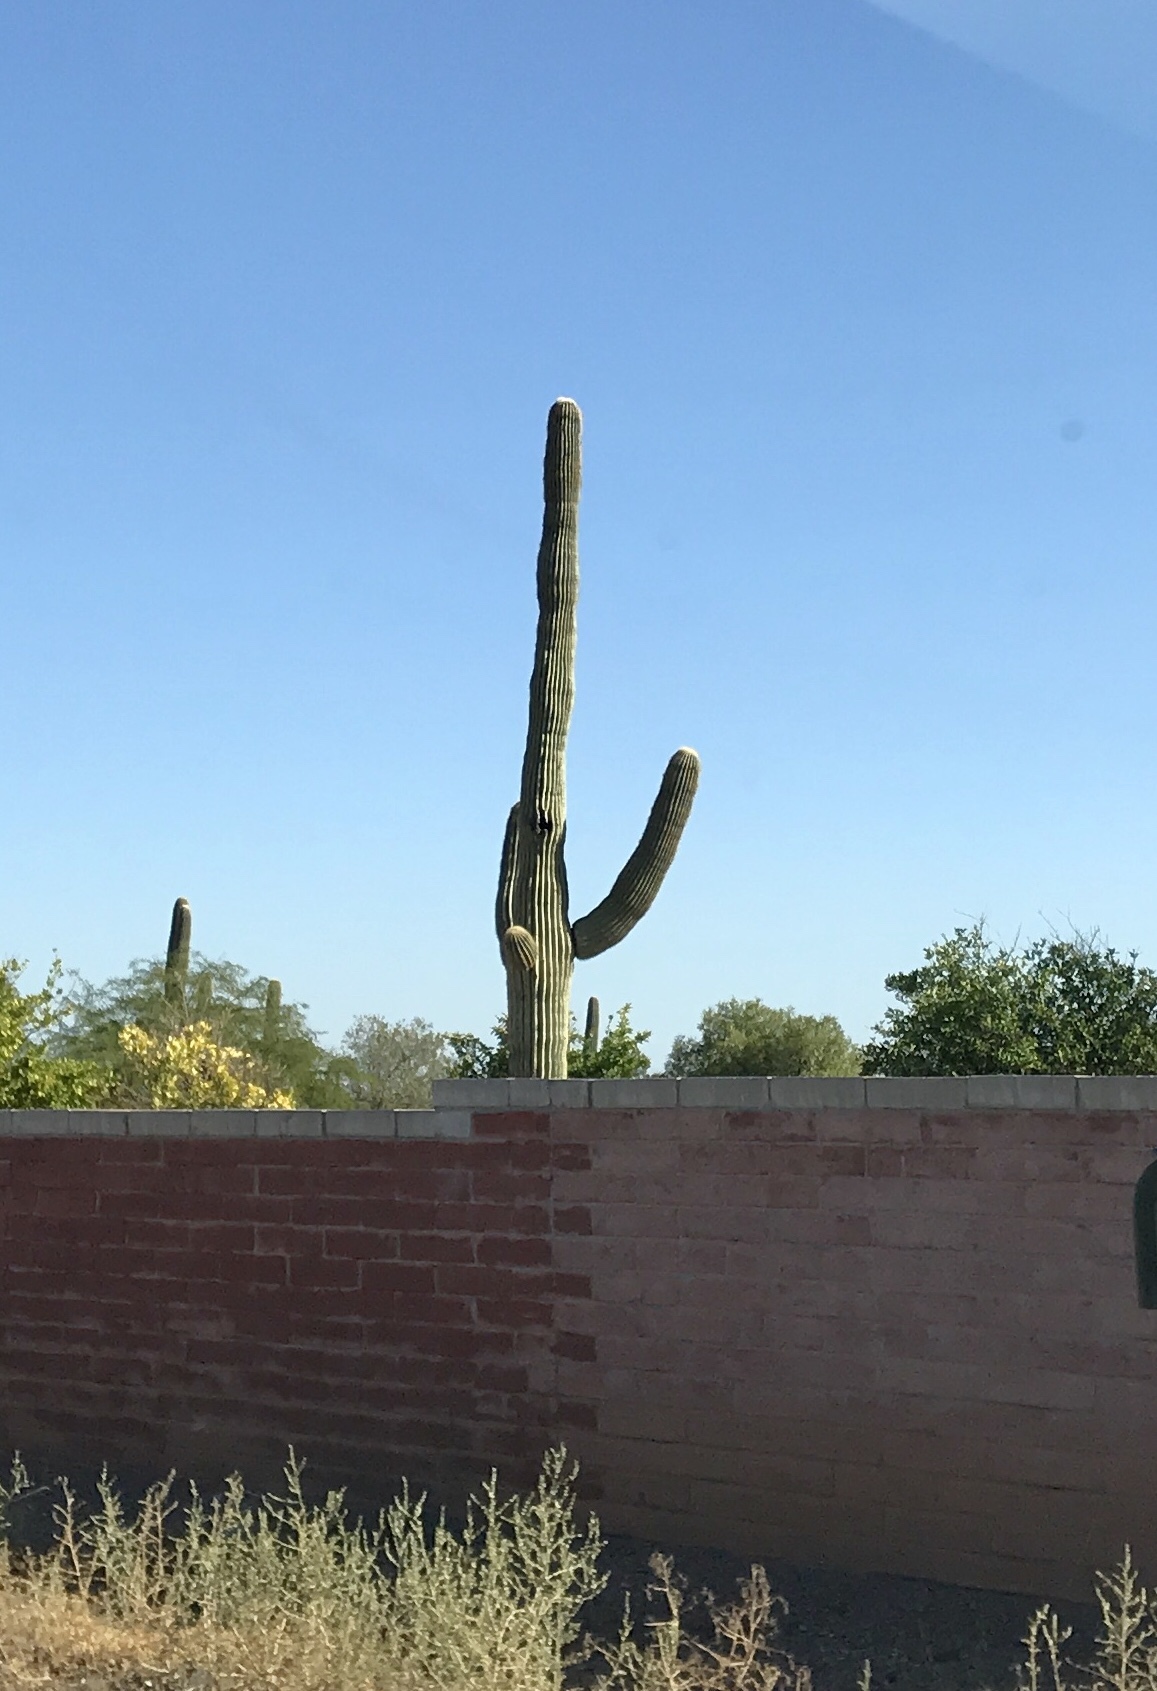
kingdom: Plantae
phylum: Tracheophyta
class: Magnoliopsida
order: Caryophyllales
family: Cactaceae
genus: Carnegiea
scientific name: Carnegiea gigantea
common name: Saguaro
